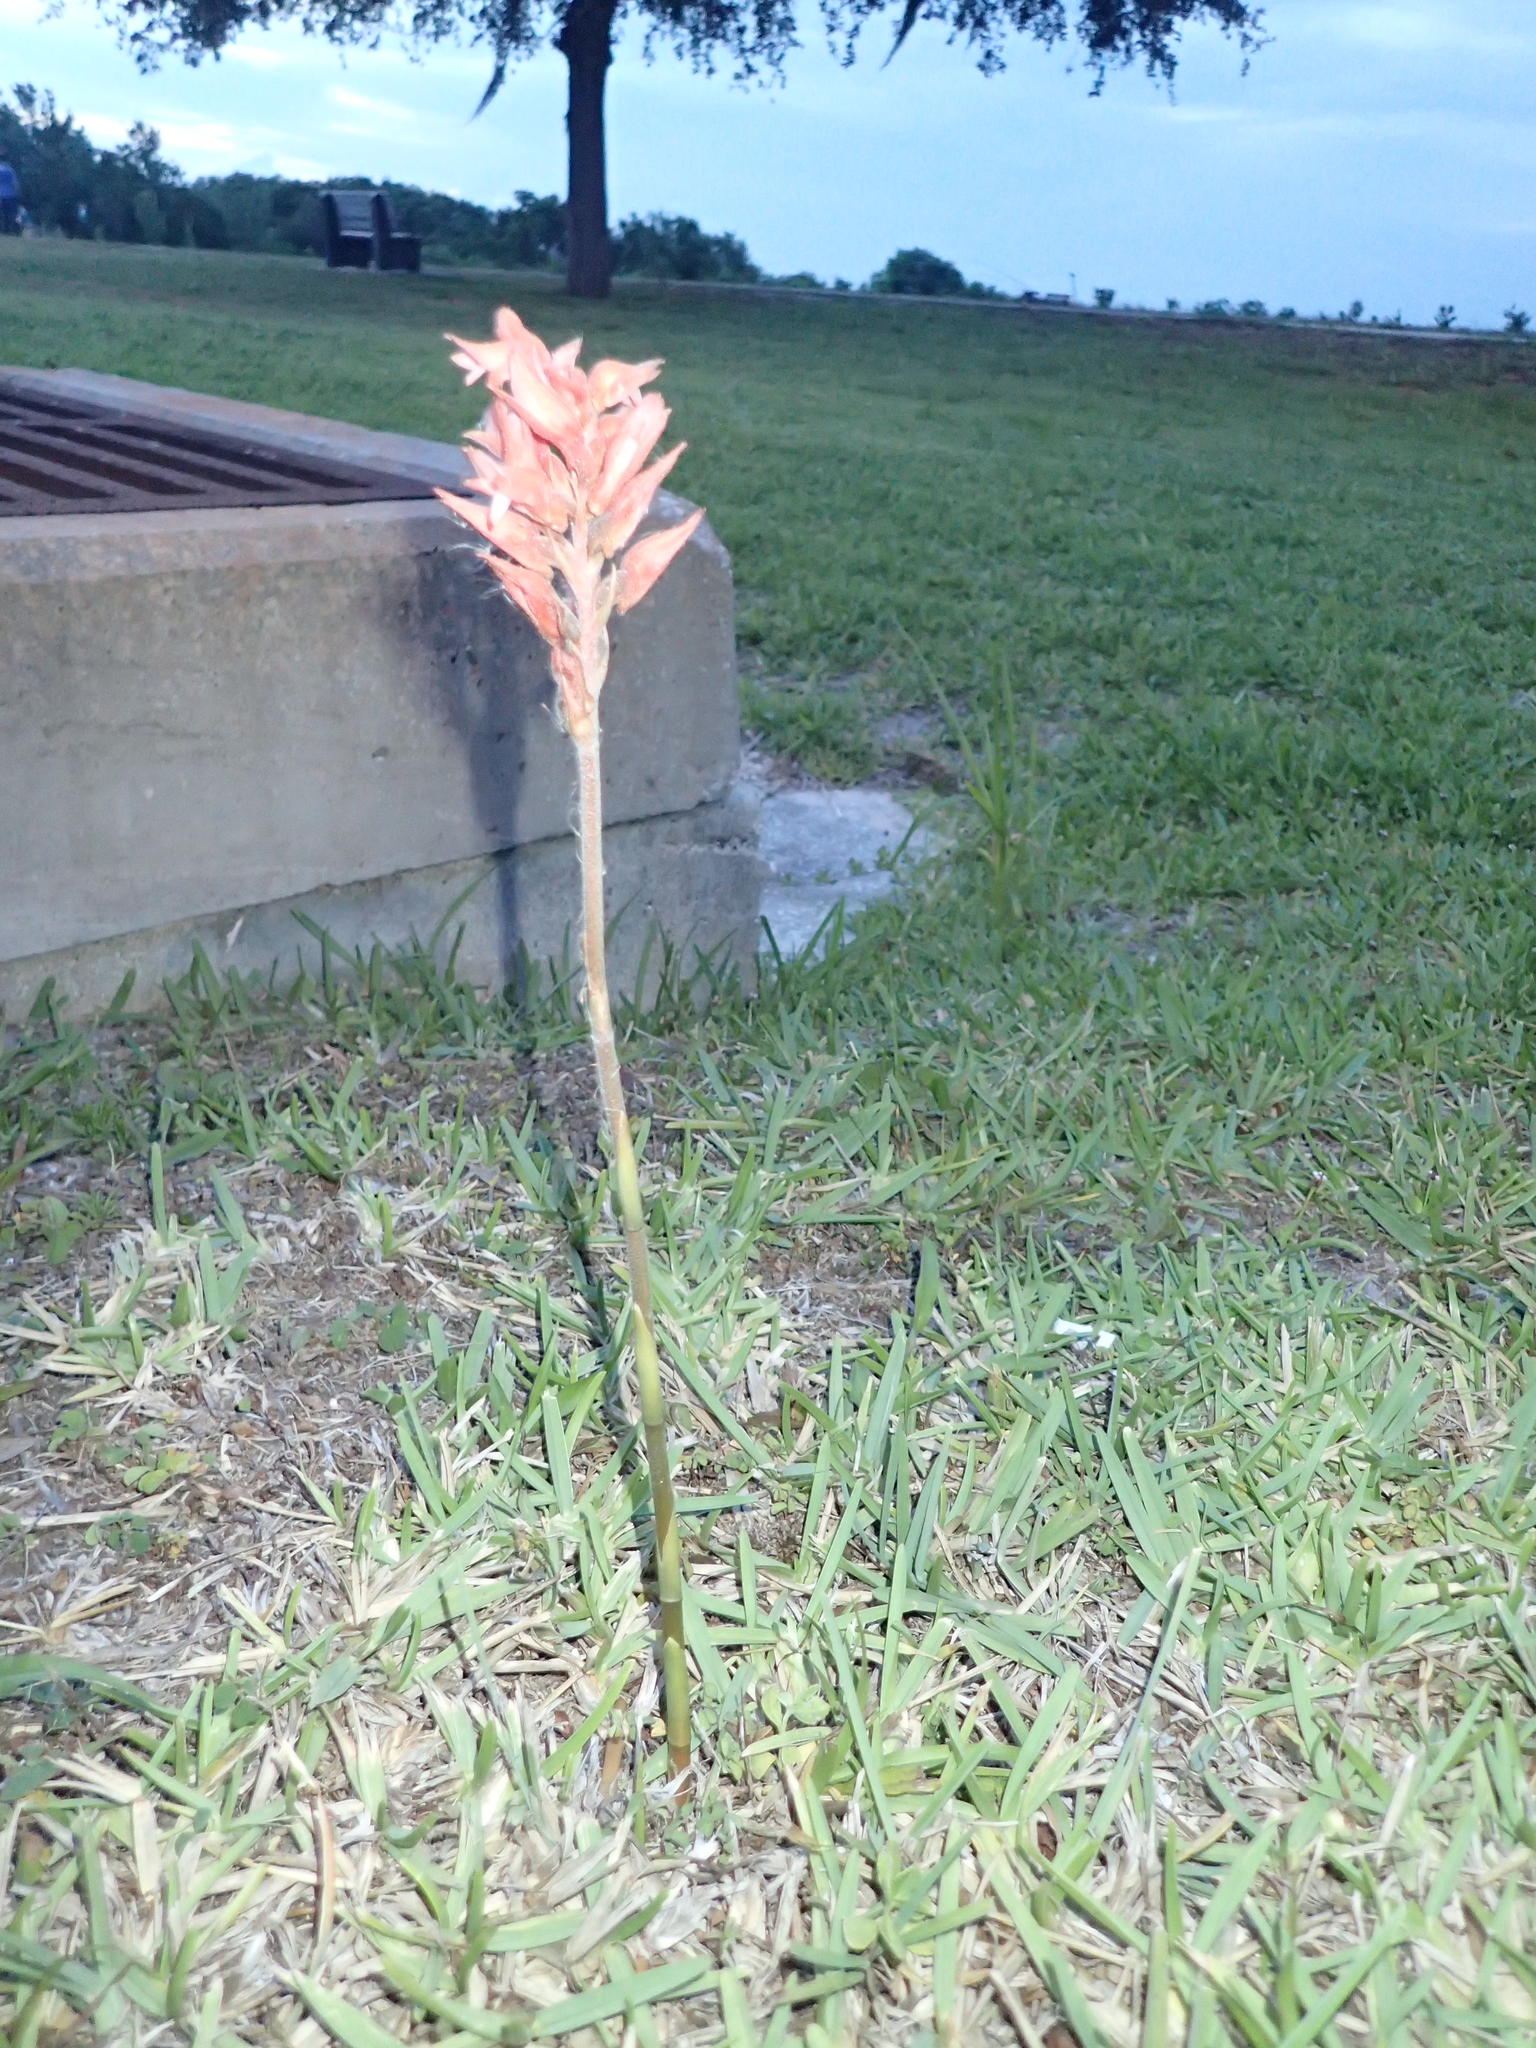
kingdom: Plantae
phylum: Tracheophyta
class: Liliopsida
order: Asparagales
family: Orchidaceae
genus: Sacoila
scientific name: Sacoila lanceolata
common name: Leafless beaked ladiestresses
